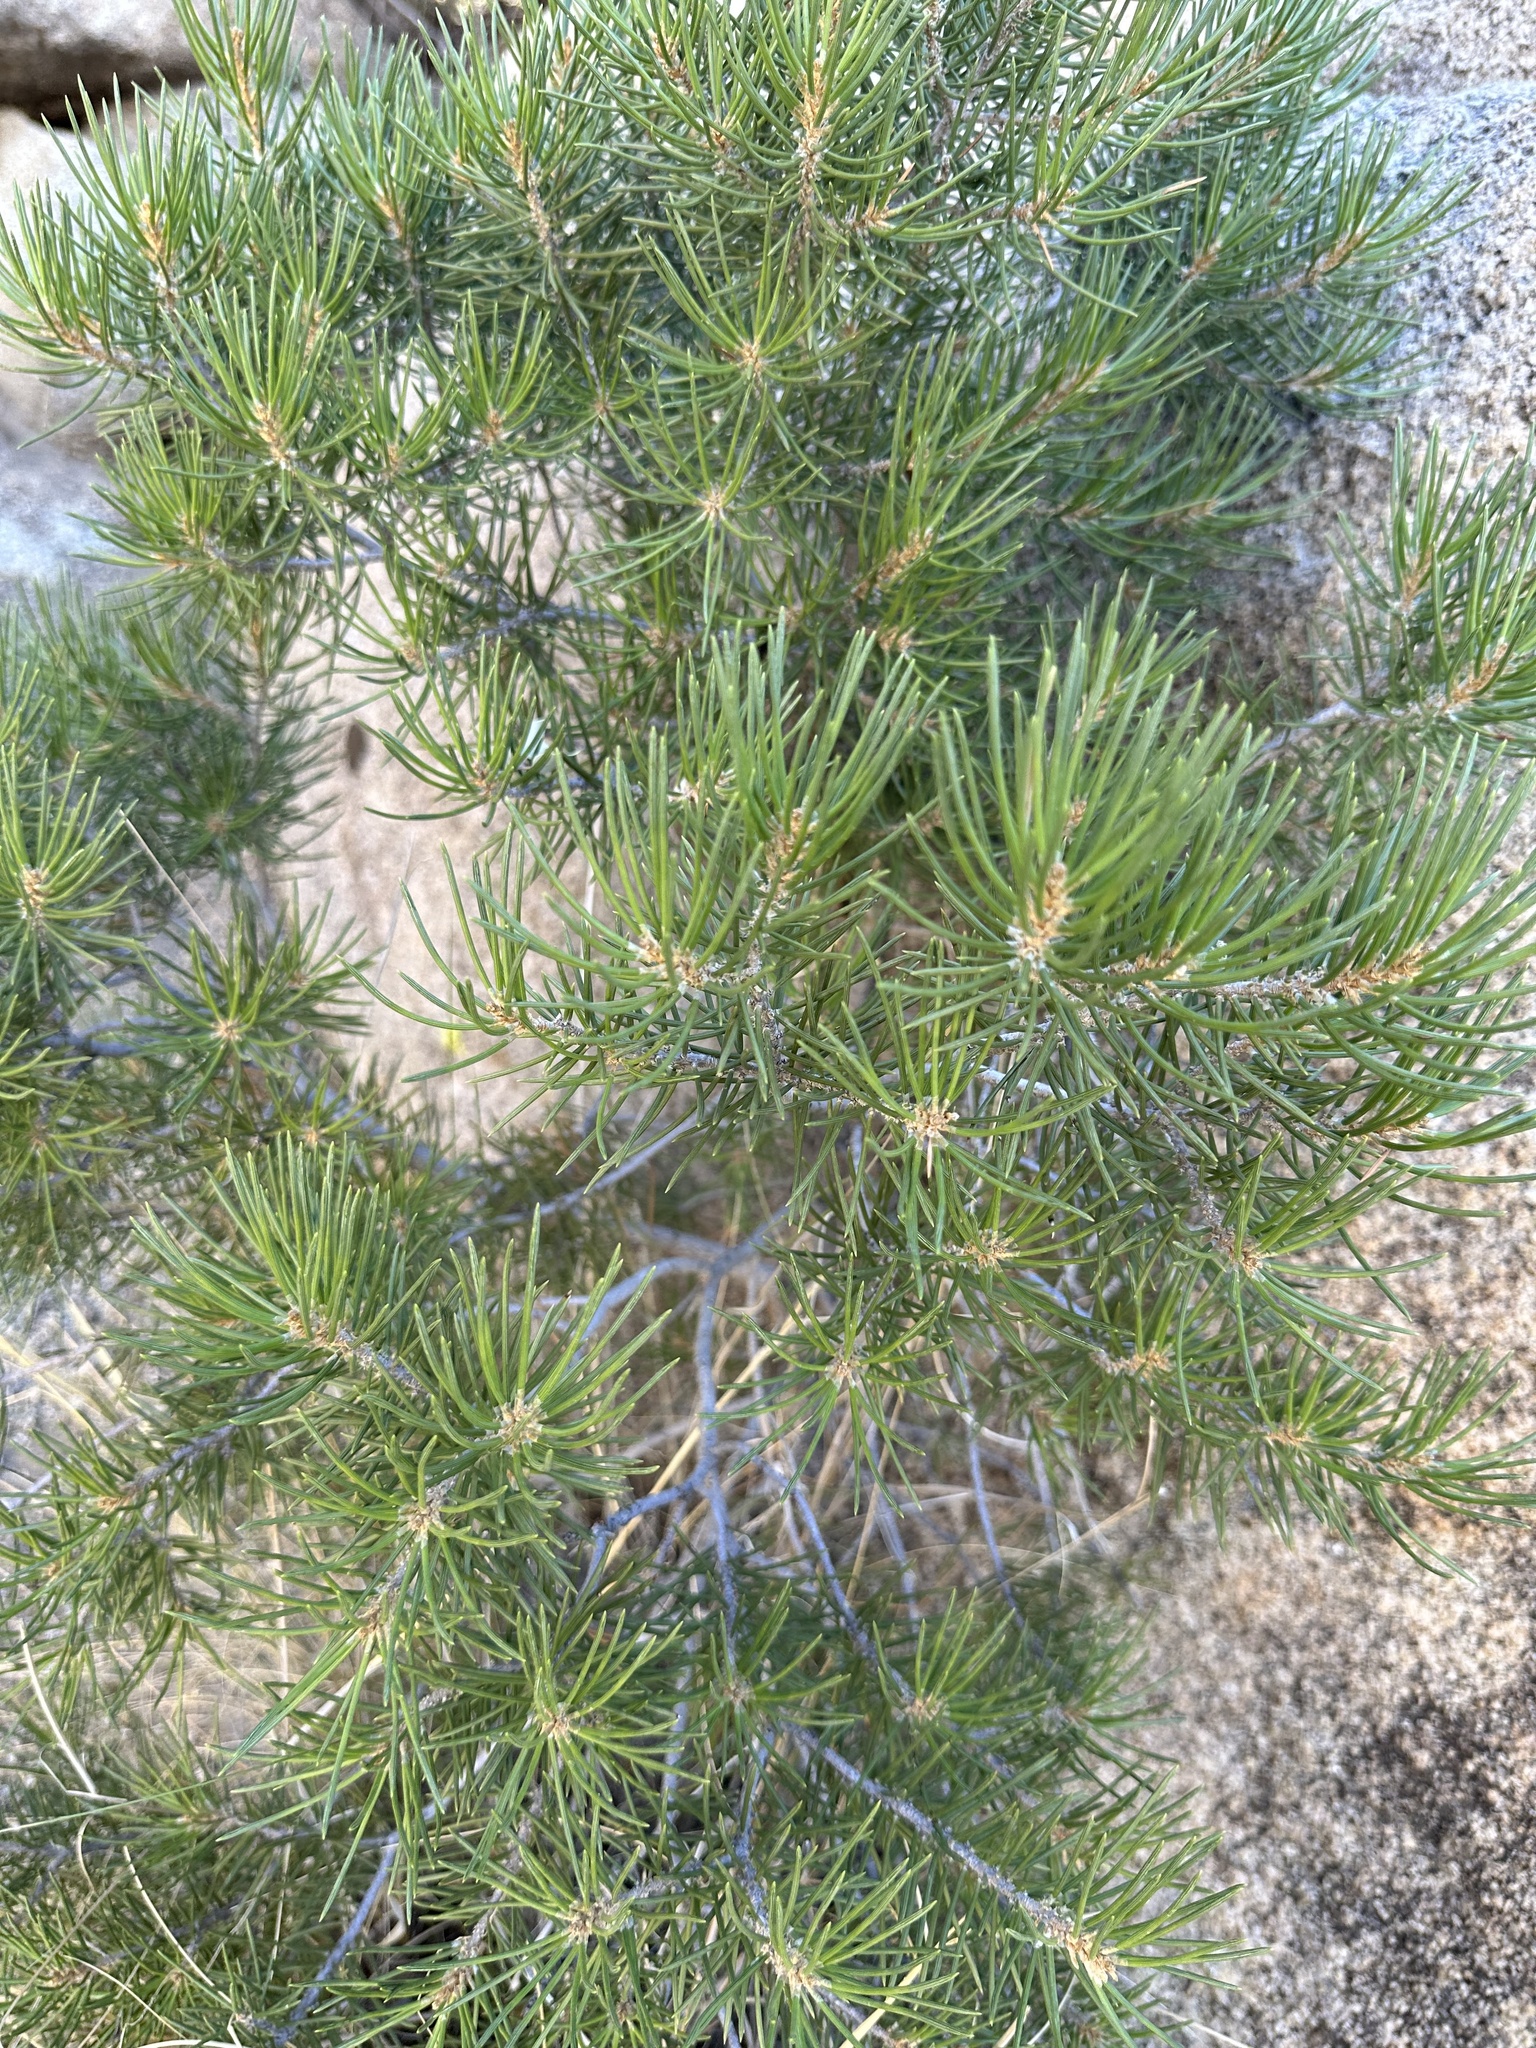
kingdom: Plantae
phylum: Tracheophyta
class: Pinopsida
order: Pinales
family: Pinaceae
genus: Pinus
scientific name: Pinus monophylla
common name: One-leaved nut pine
